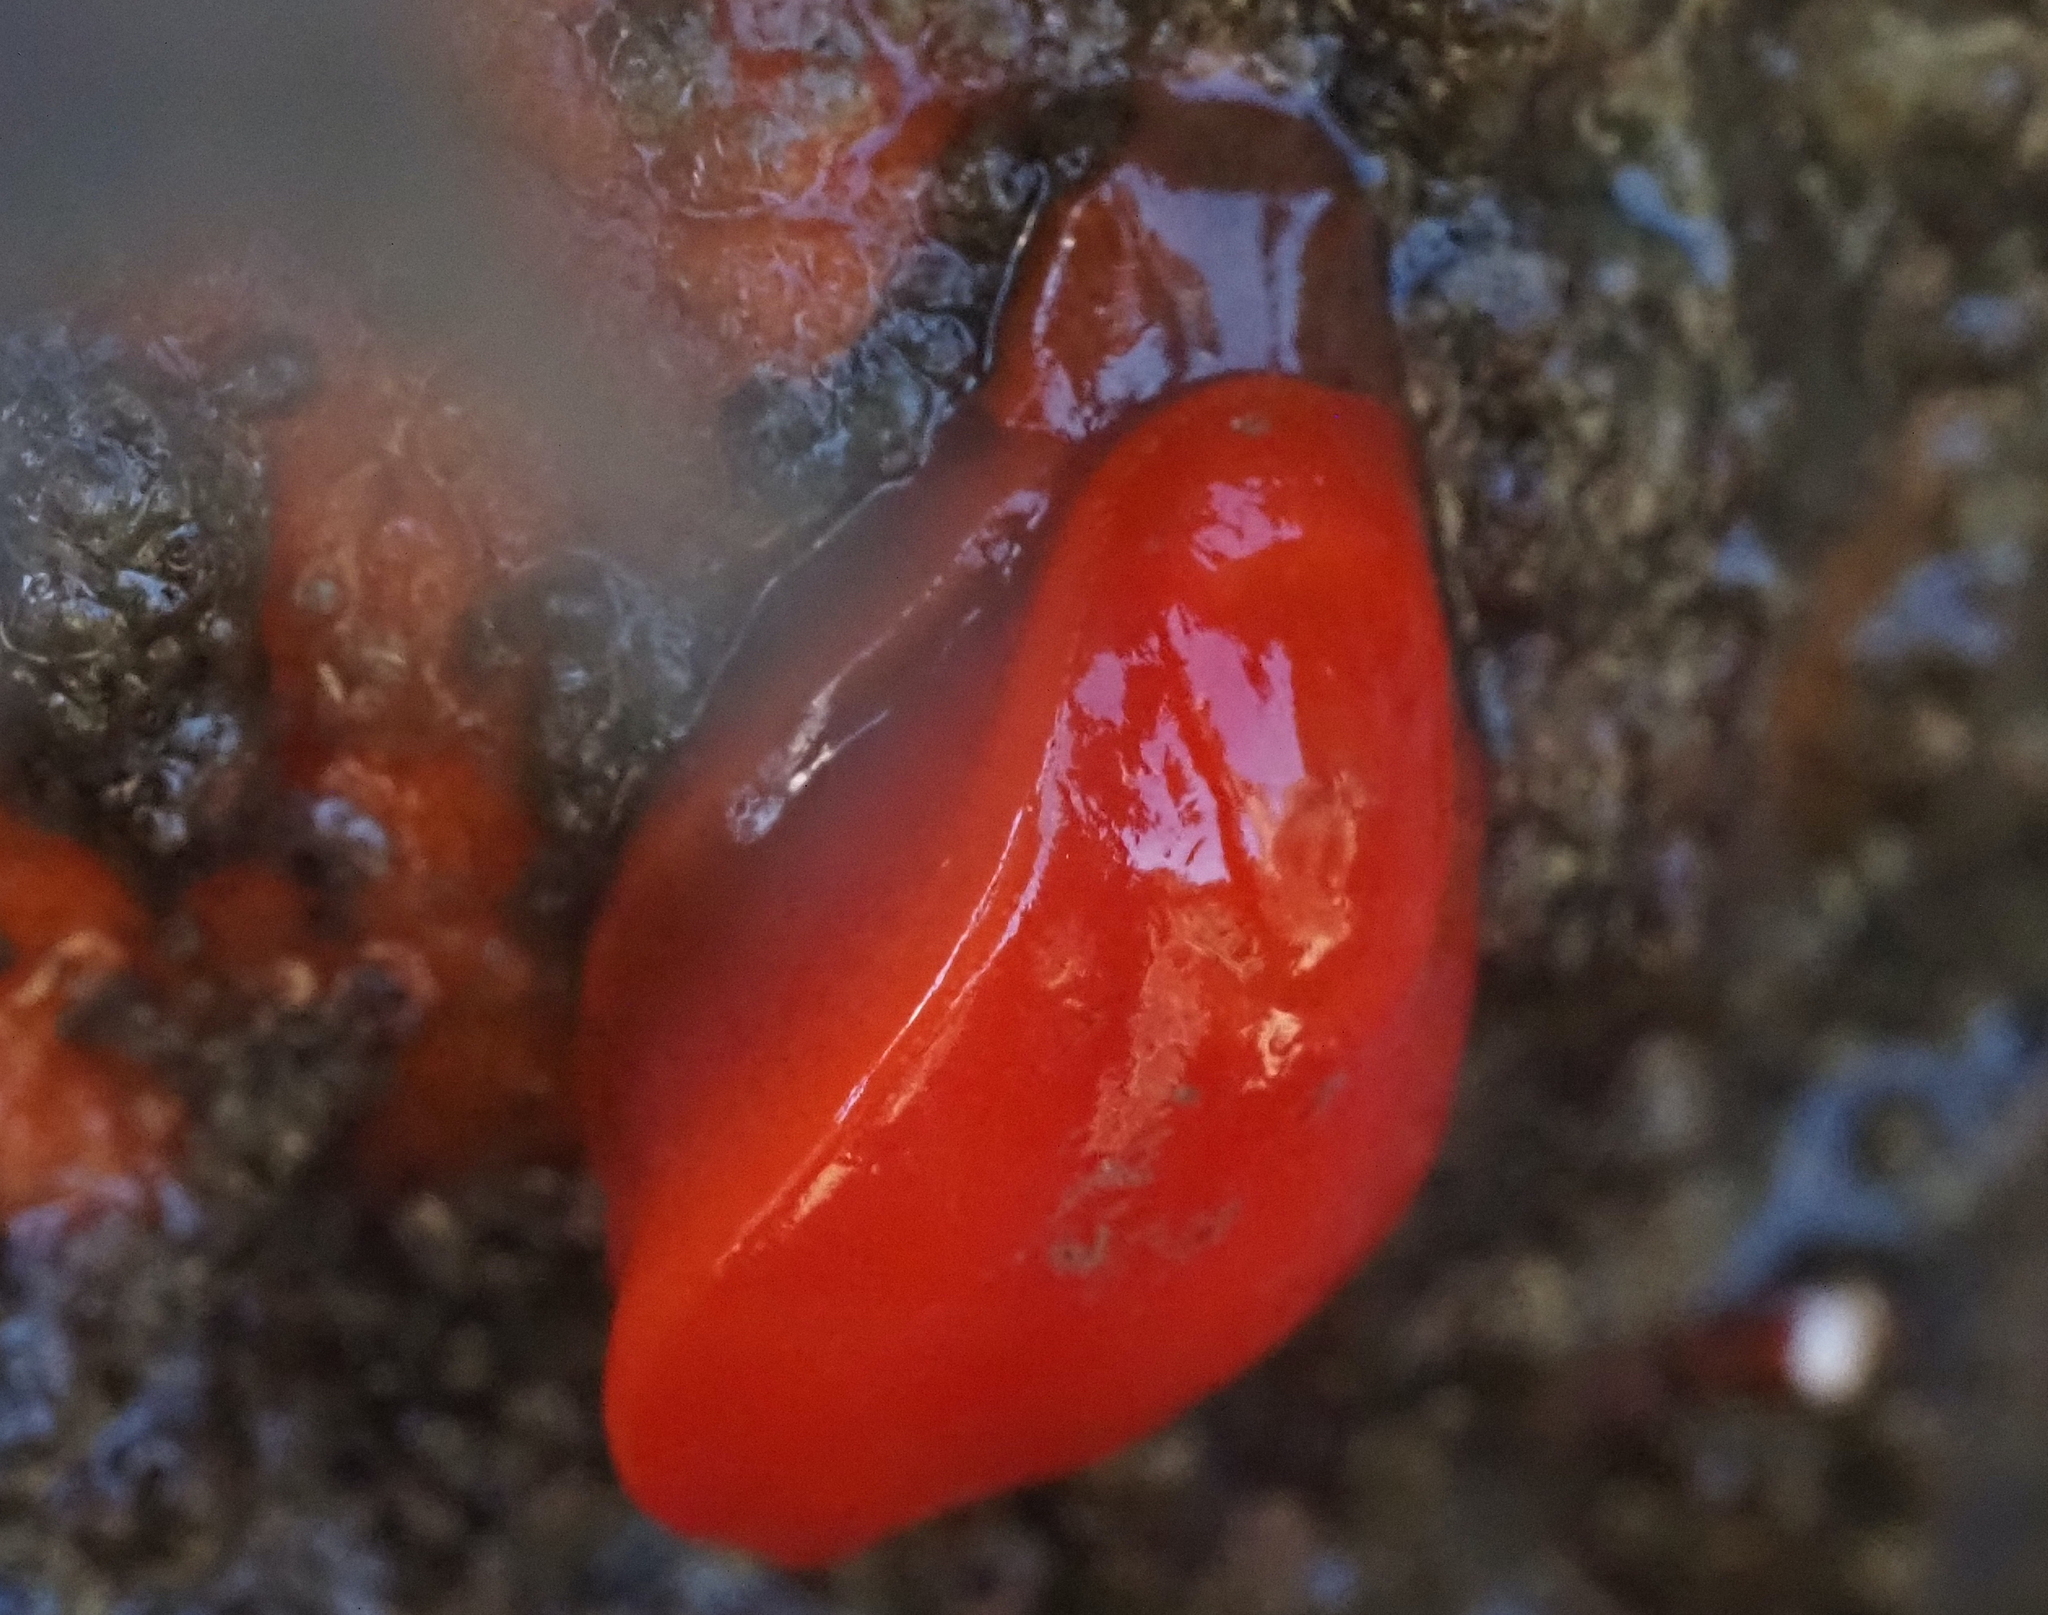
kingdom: Animalia
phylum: Mollusca
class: Gastropoda
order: Nudibranchia
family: Discodorididae
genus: Rostanga
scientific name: Rostanga pulchra
